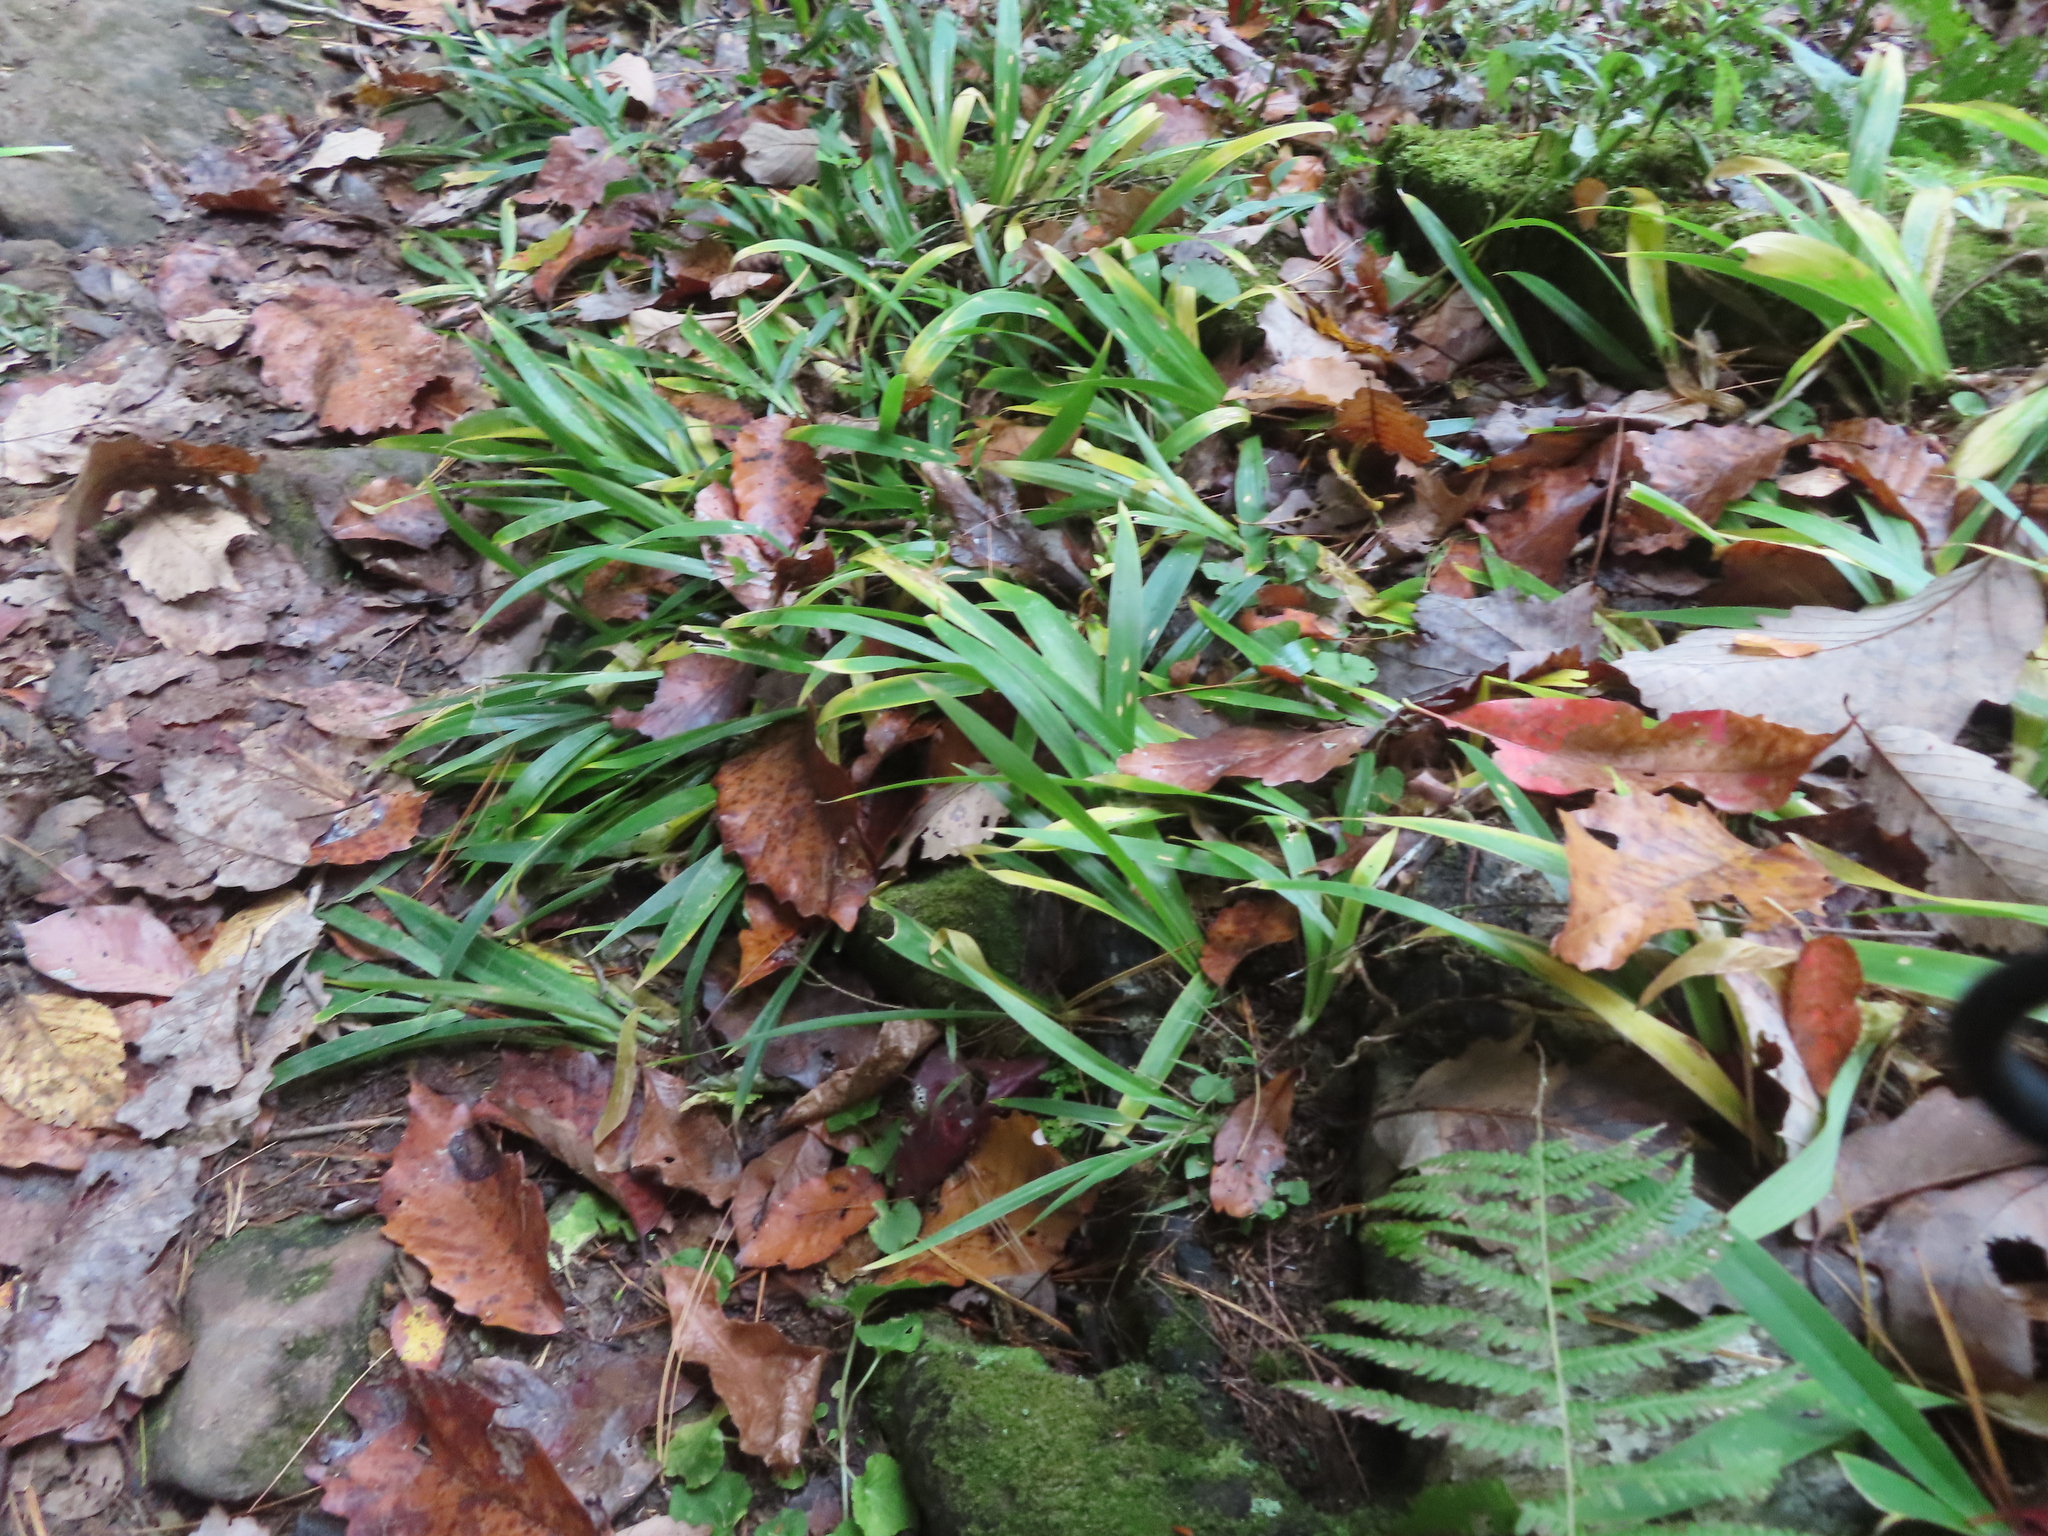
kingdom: Plantae
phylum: Tracheophyta
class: Liliopsida
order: Asparagales
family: Iridaceae
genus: Iris
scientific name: Iris cristata
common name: Crested iris
